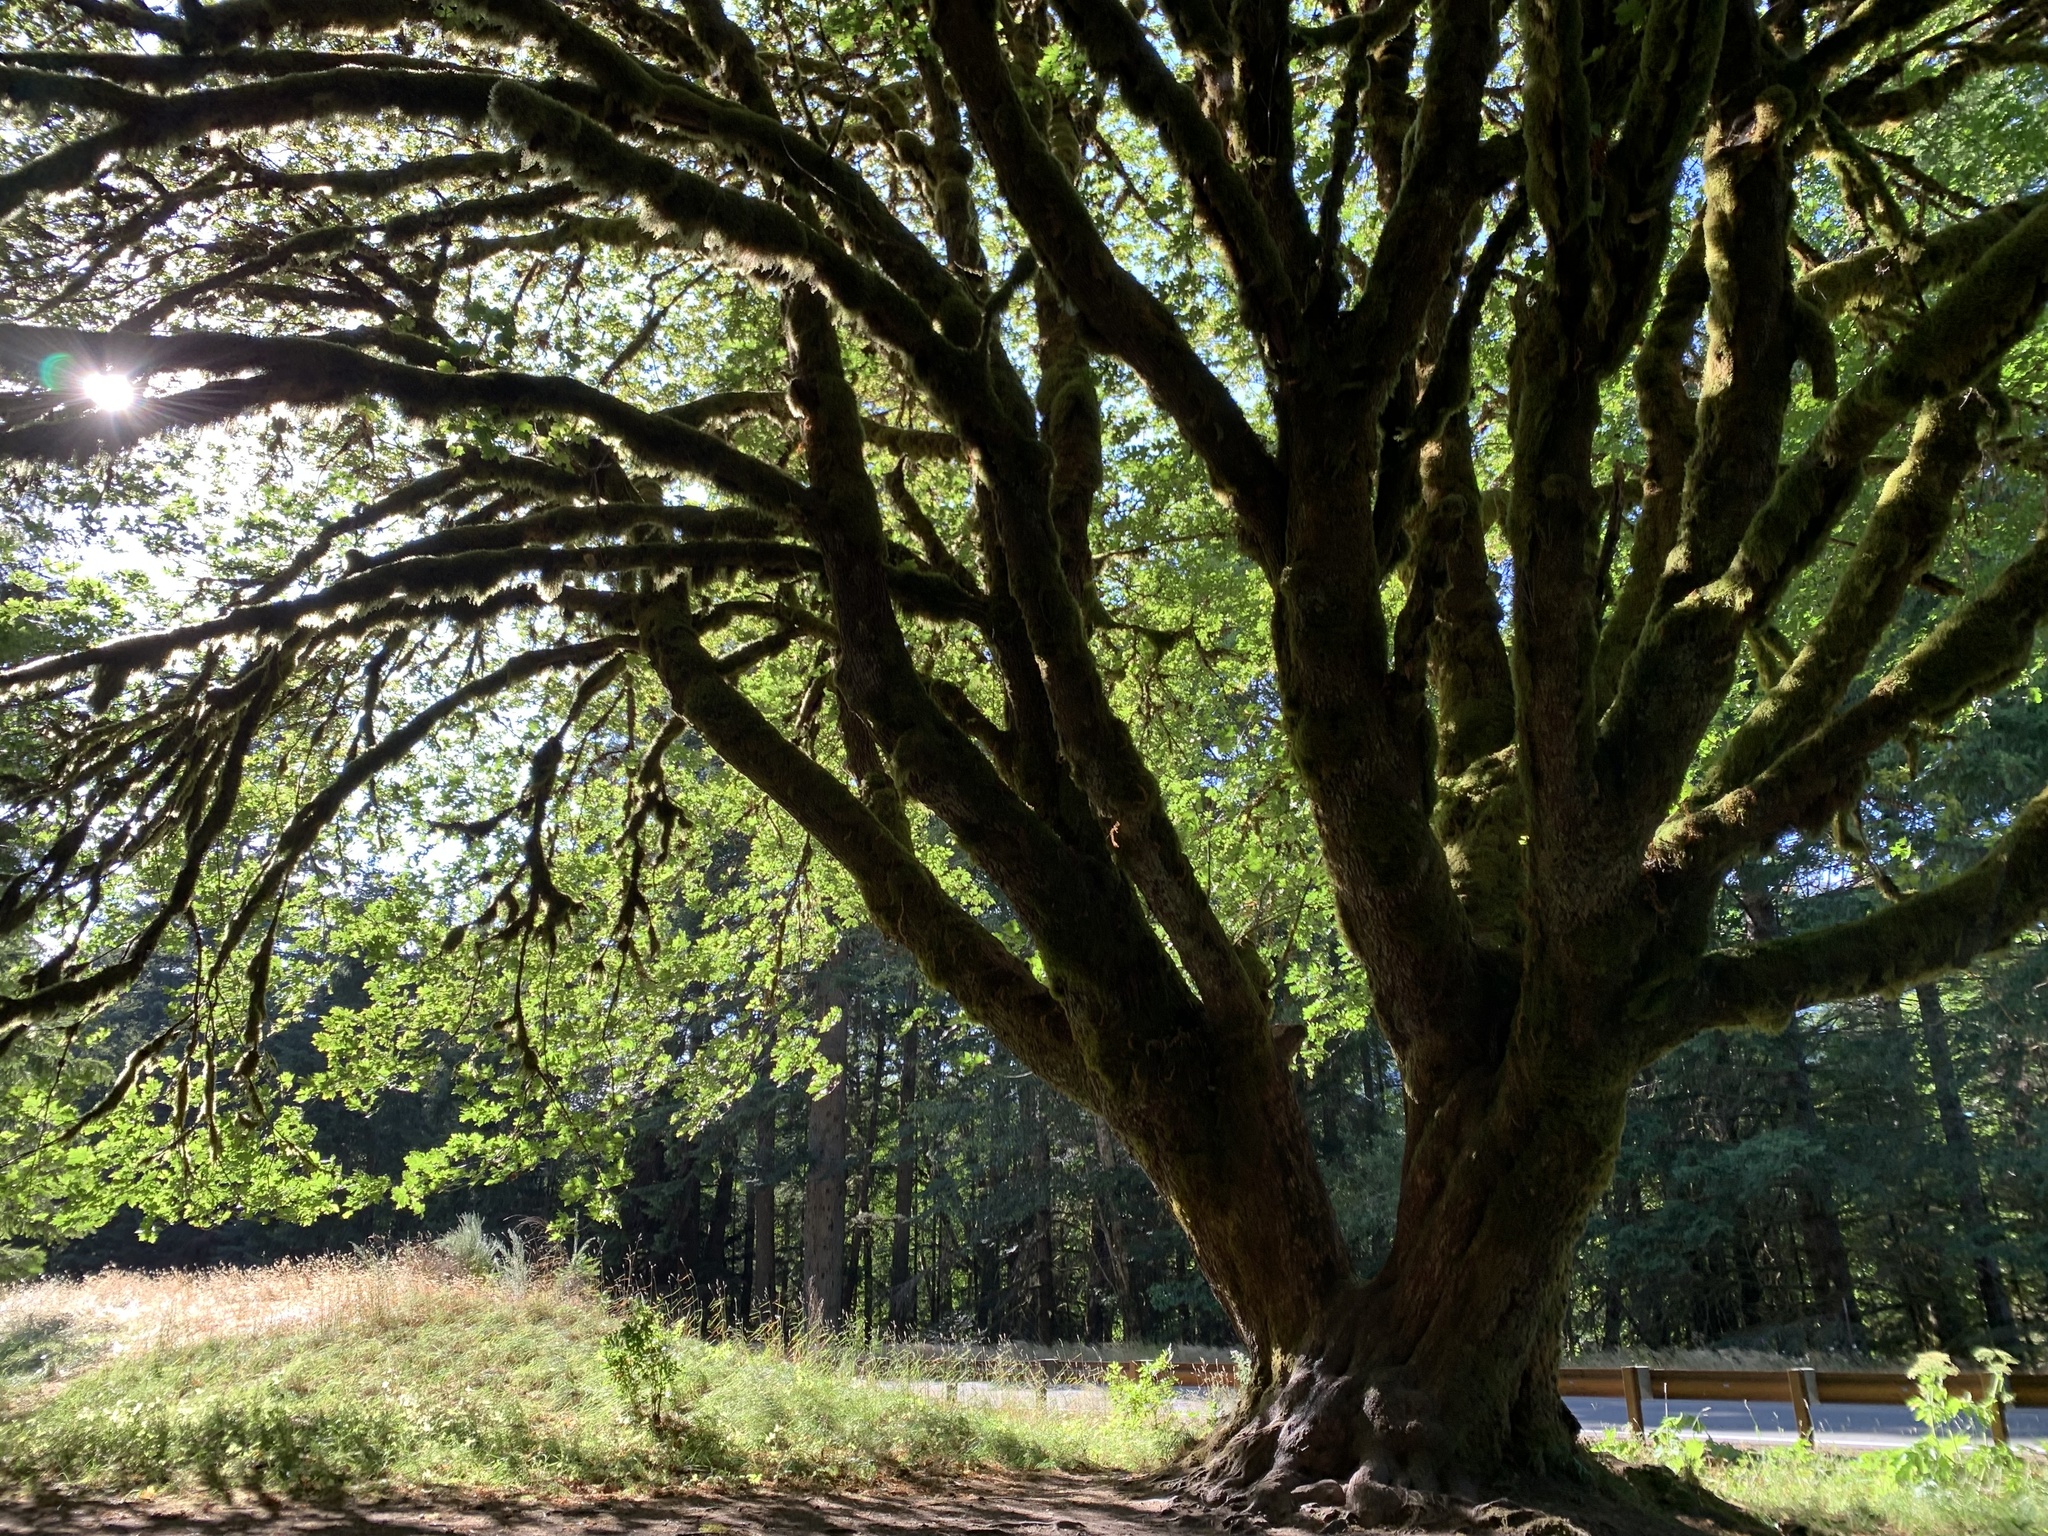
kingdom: Plantae
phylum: Tracheophyta
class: Magnoliopsida
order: Sapindales
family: Sapindaceae
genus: Acer
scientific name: Acer macrophyllum
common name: Oregon maple
